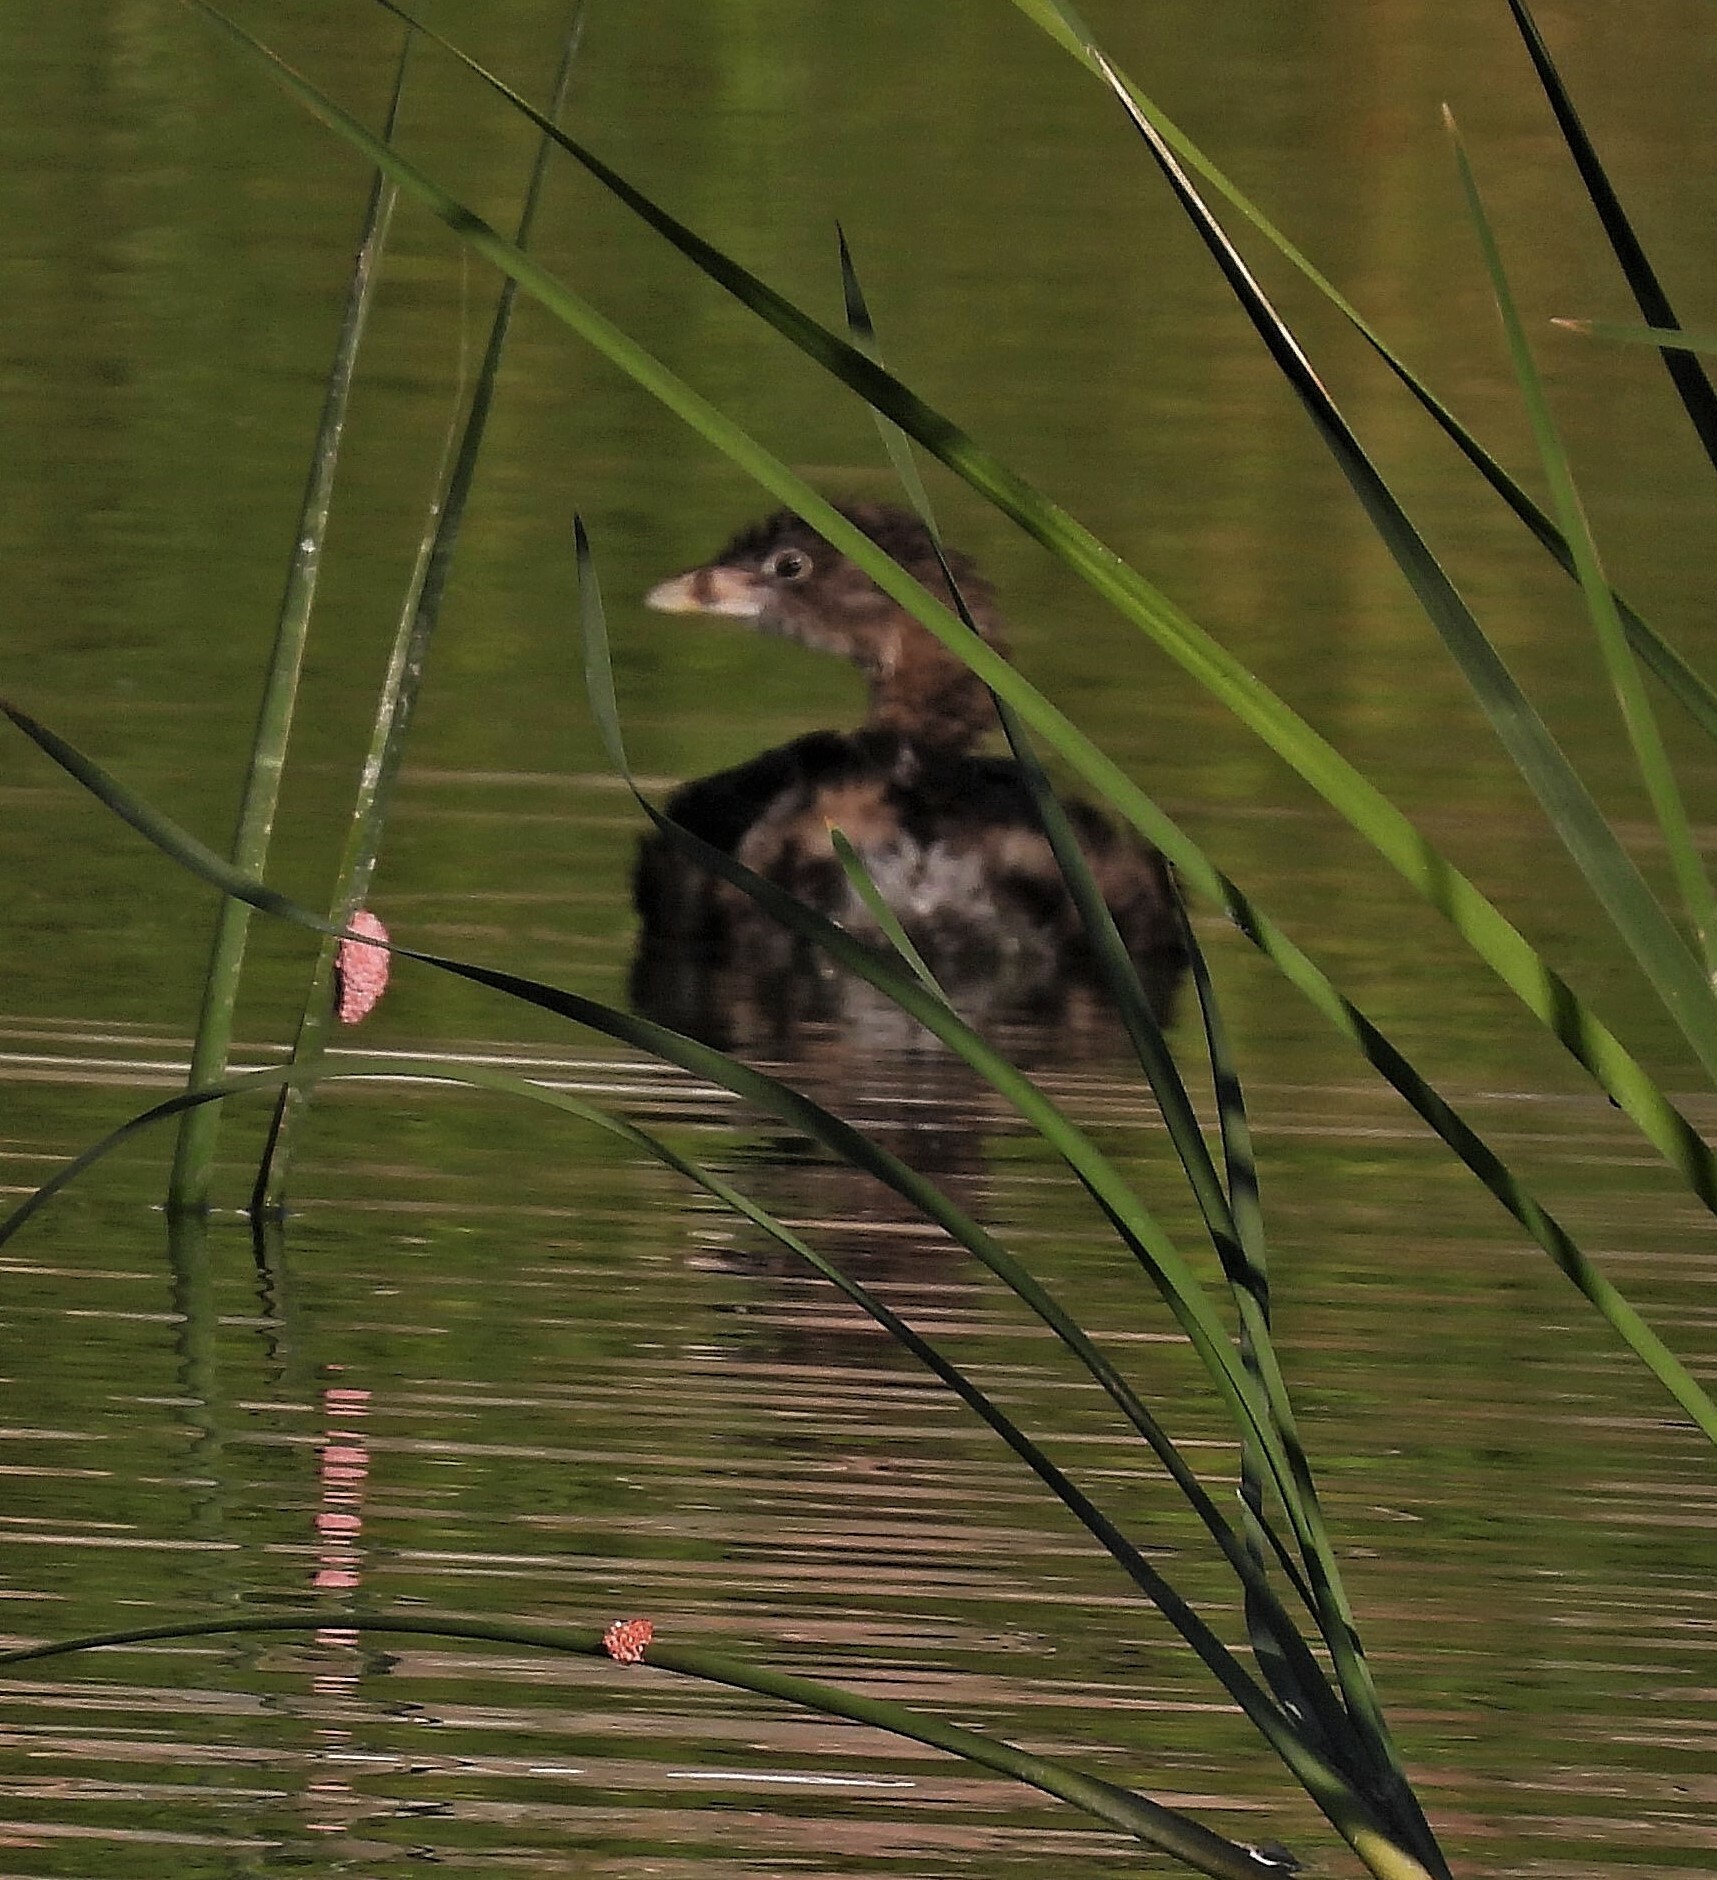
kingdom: Animalia
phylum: Chordata
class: Aves
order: Podicipediformes
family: Podicipedidae
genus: Podilymbus
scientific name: Podilymbus podiceps
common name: Pied-billed grebe
